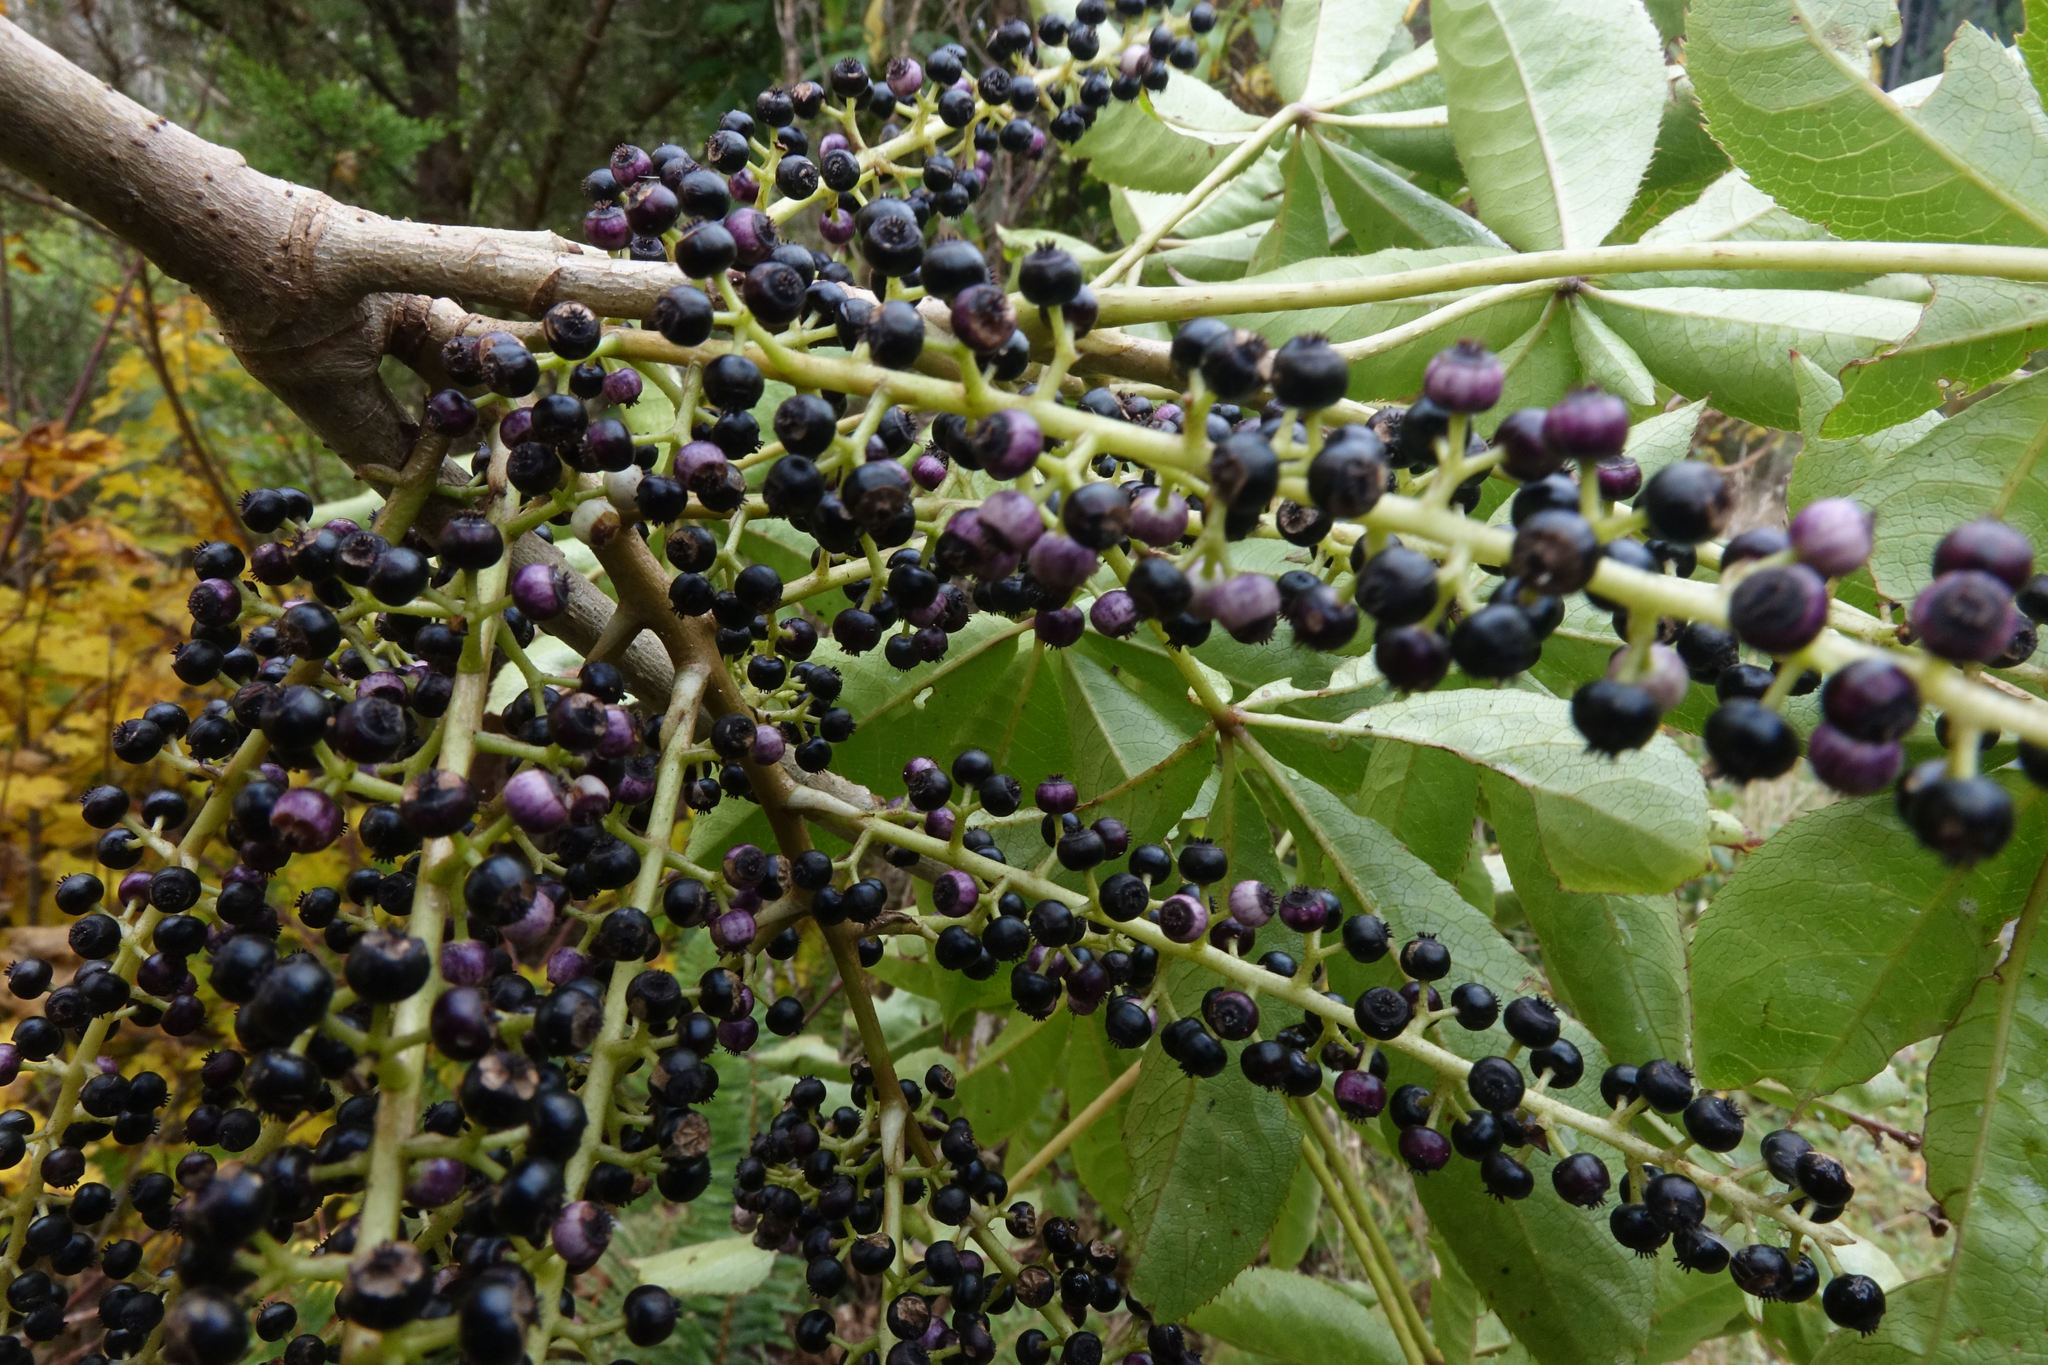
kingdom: Plantae
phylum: Tracheophyta
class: Magnoliopsida
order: Apiales
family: Araliaceae
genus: Schefflera
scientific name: Schefflera digitata
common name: Pate
